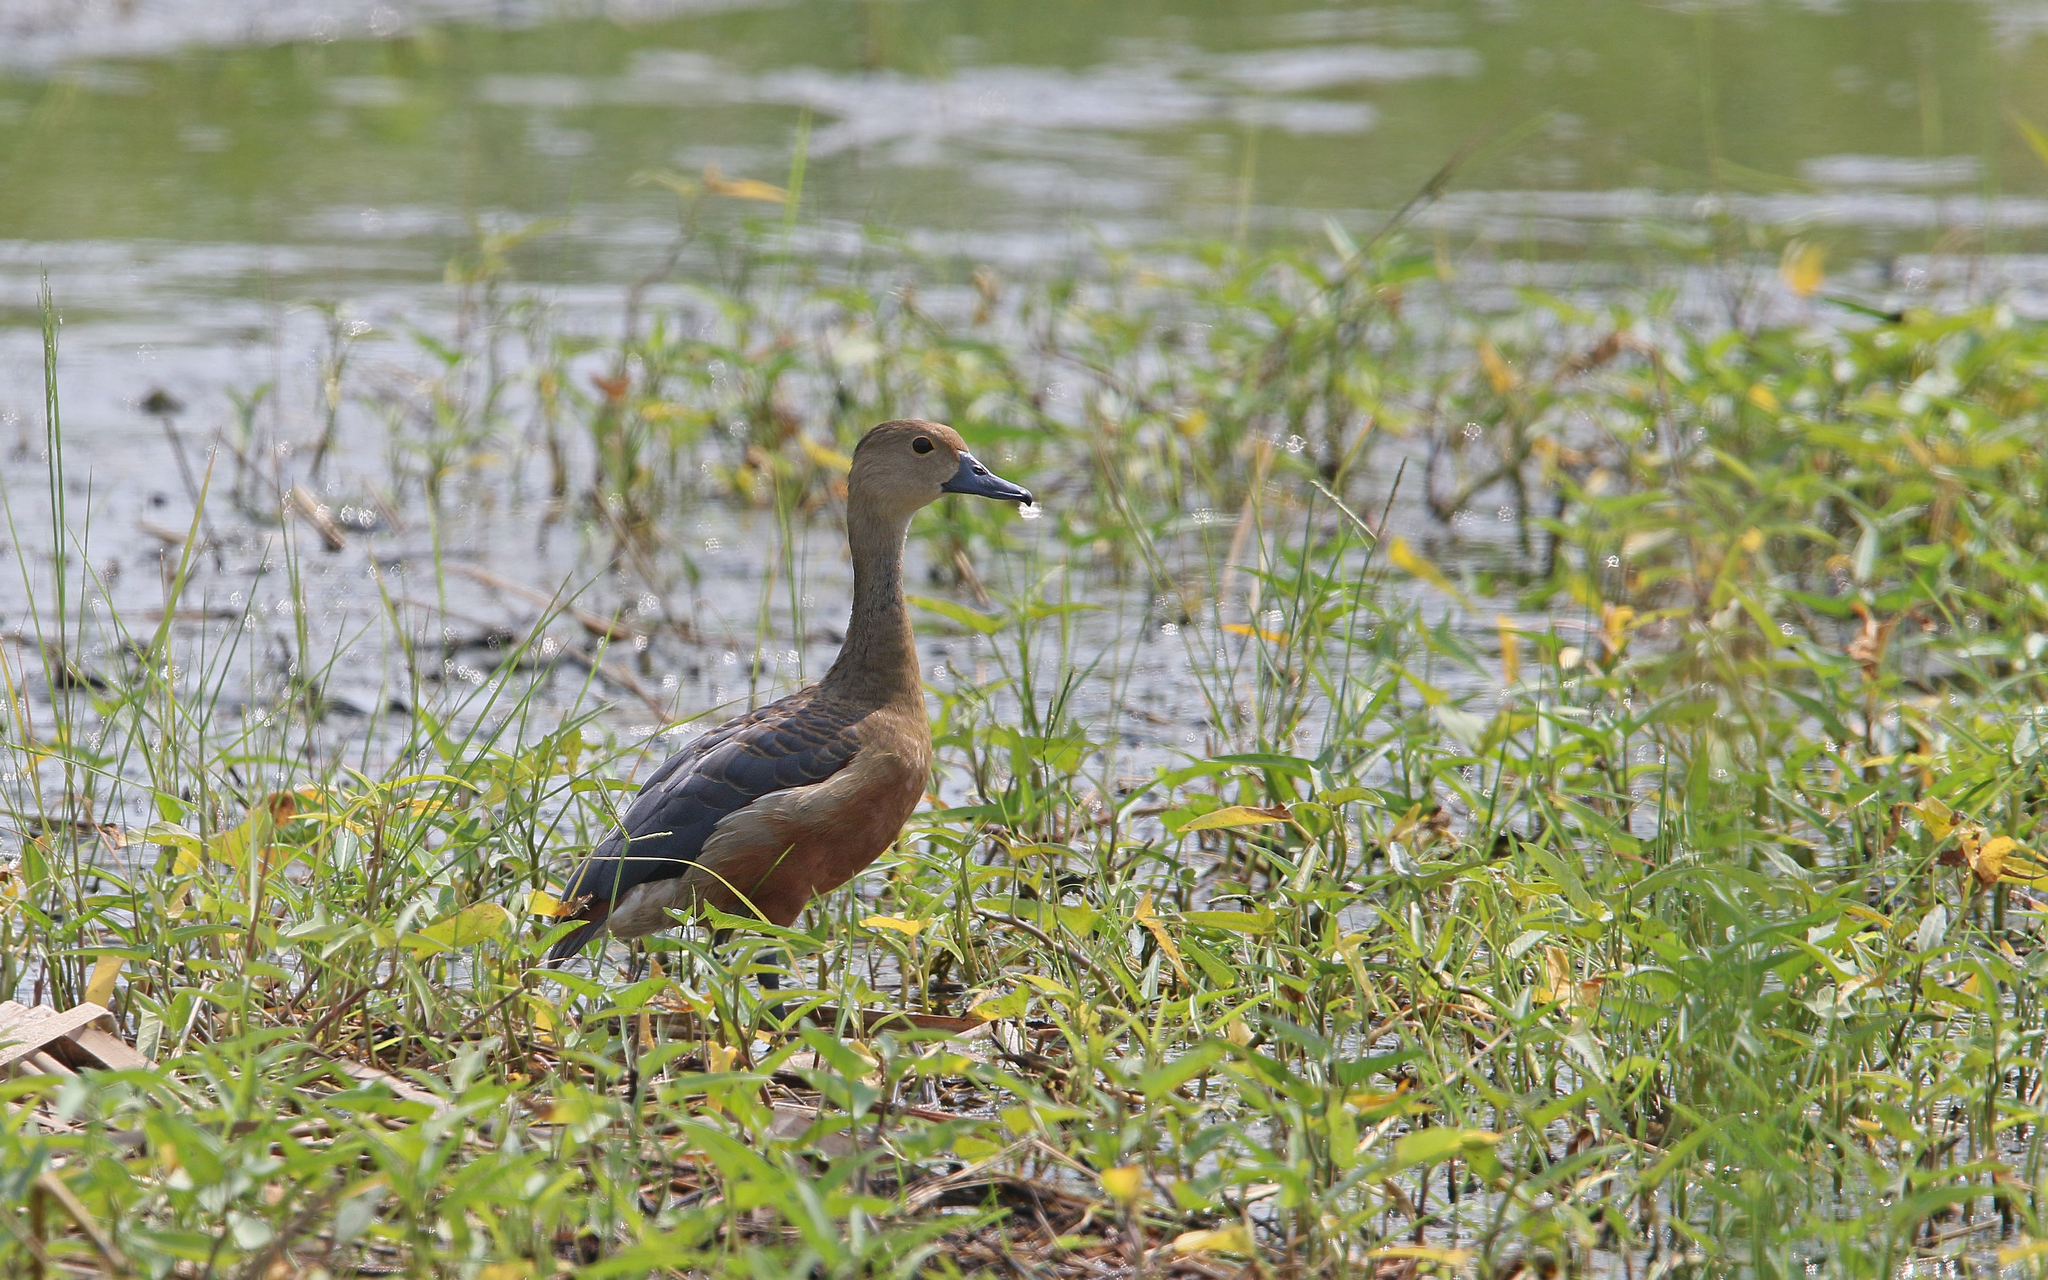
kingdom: Animalia
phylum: Chordata
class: Aves
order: Anseriformes
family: Anatidae
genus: Dendrocygna
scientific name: Dendrocygna javanica
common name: Lesser whistling-duck
